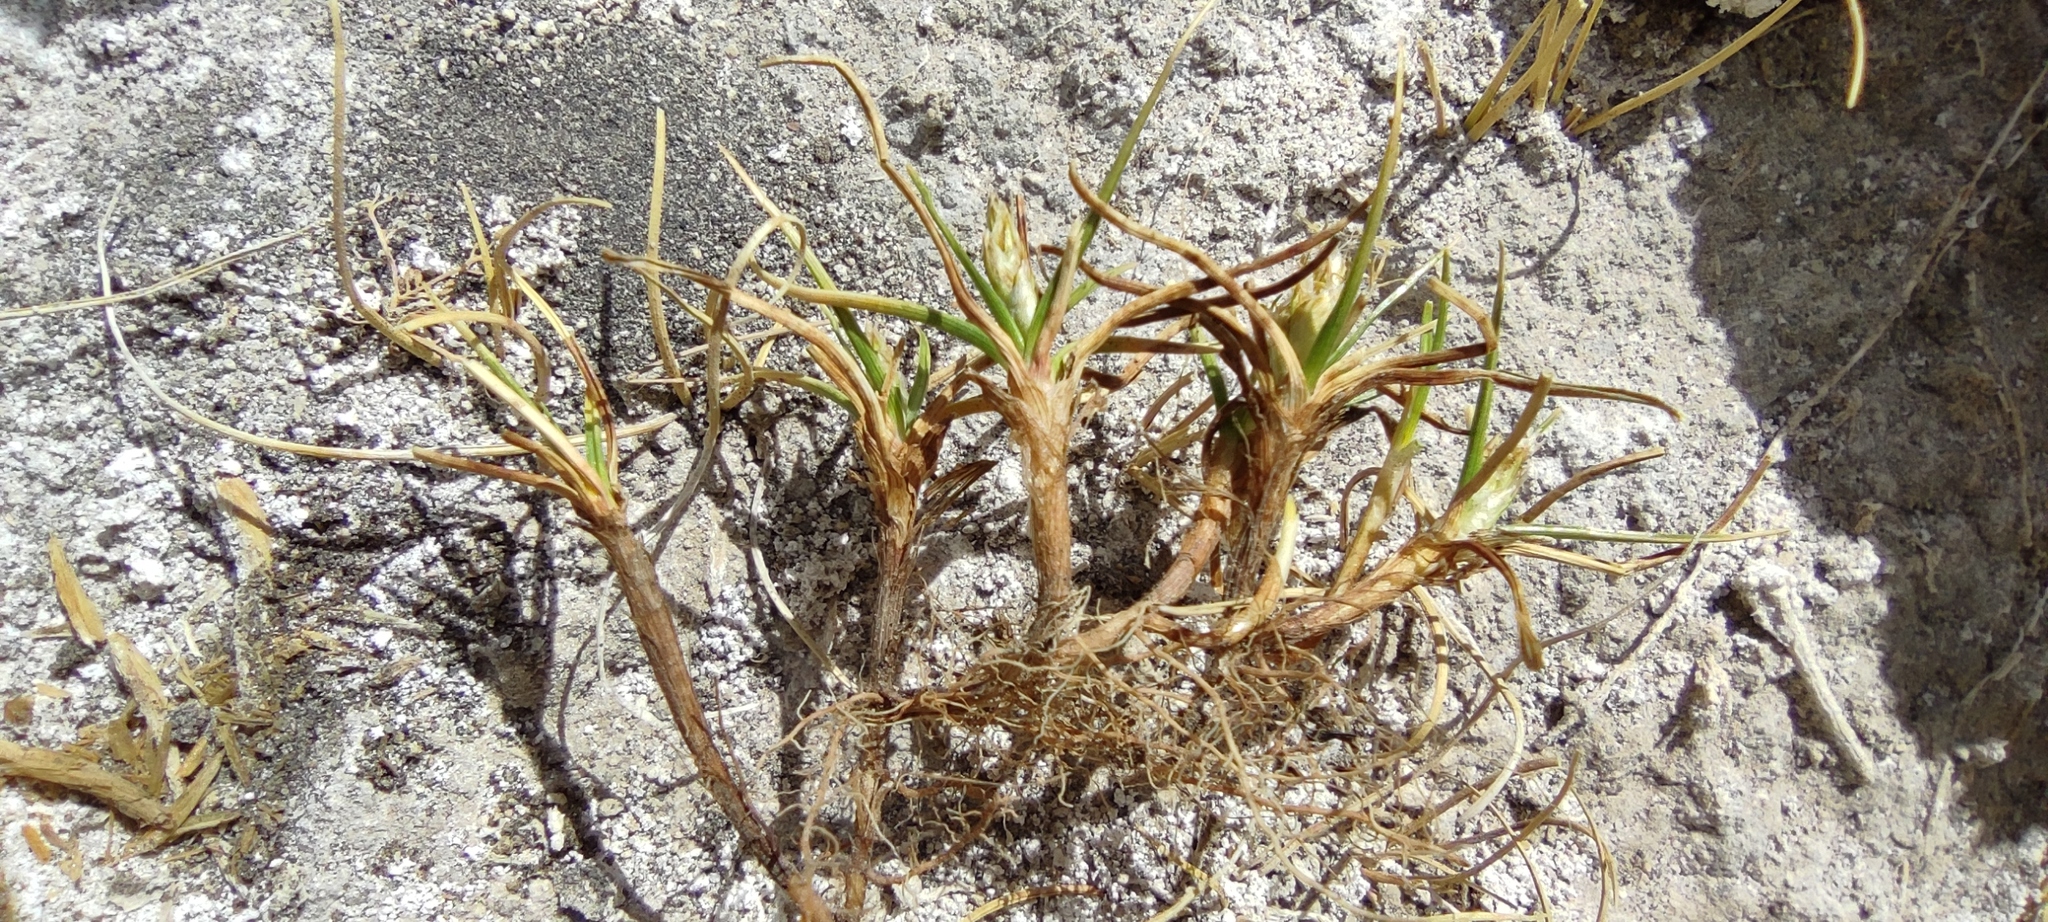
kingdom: Plantae
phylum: Tracheophyta
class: Liliopsida
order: Poales
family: Cyperaceae
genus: Carex
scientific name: Carex humahuacaensis
